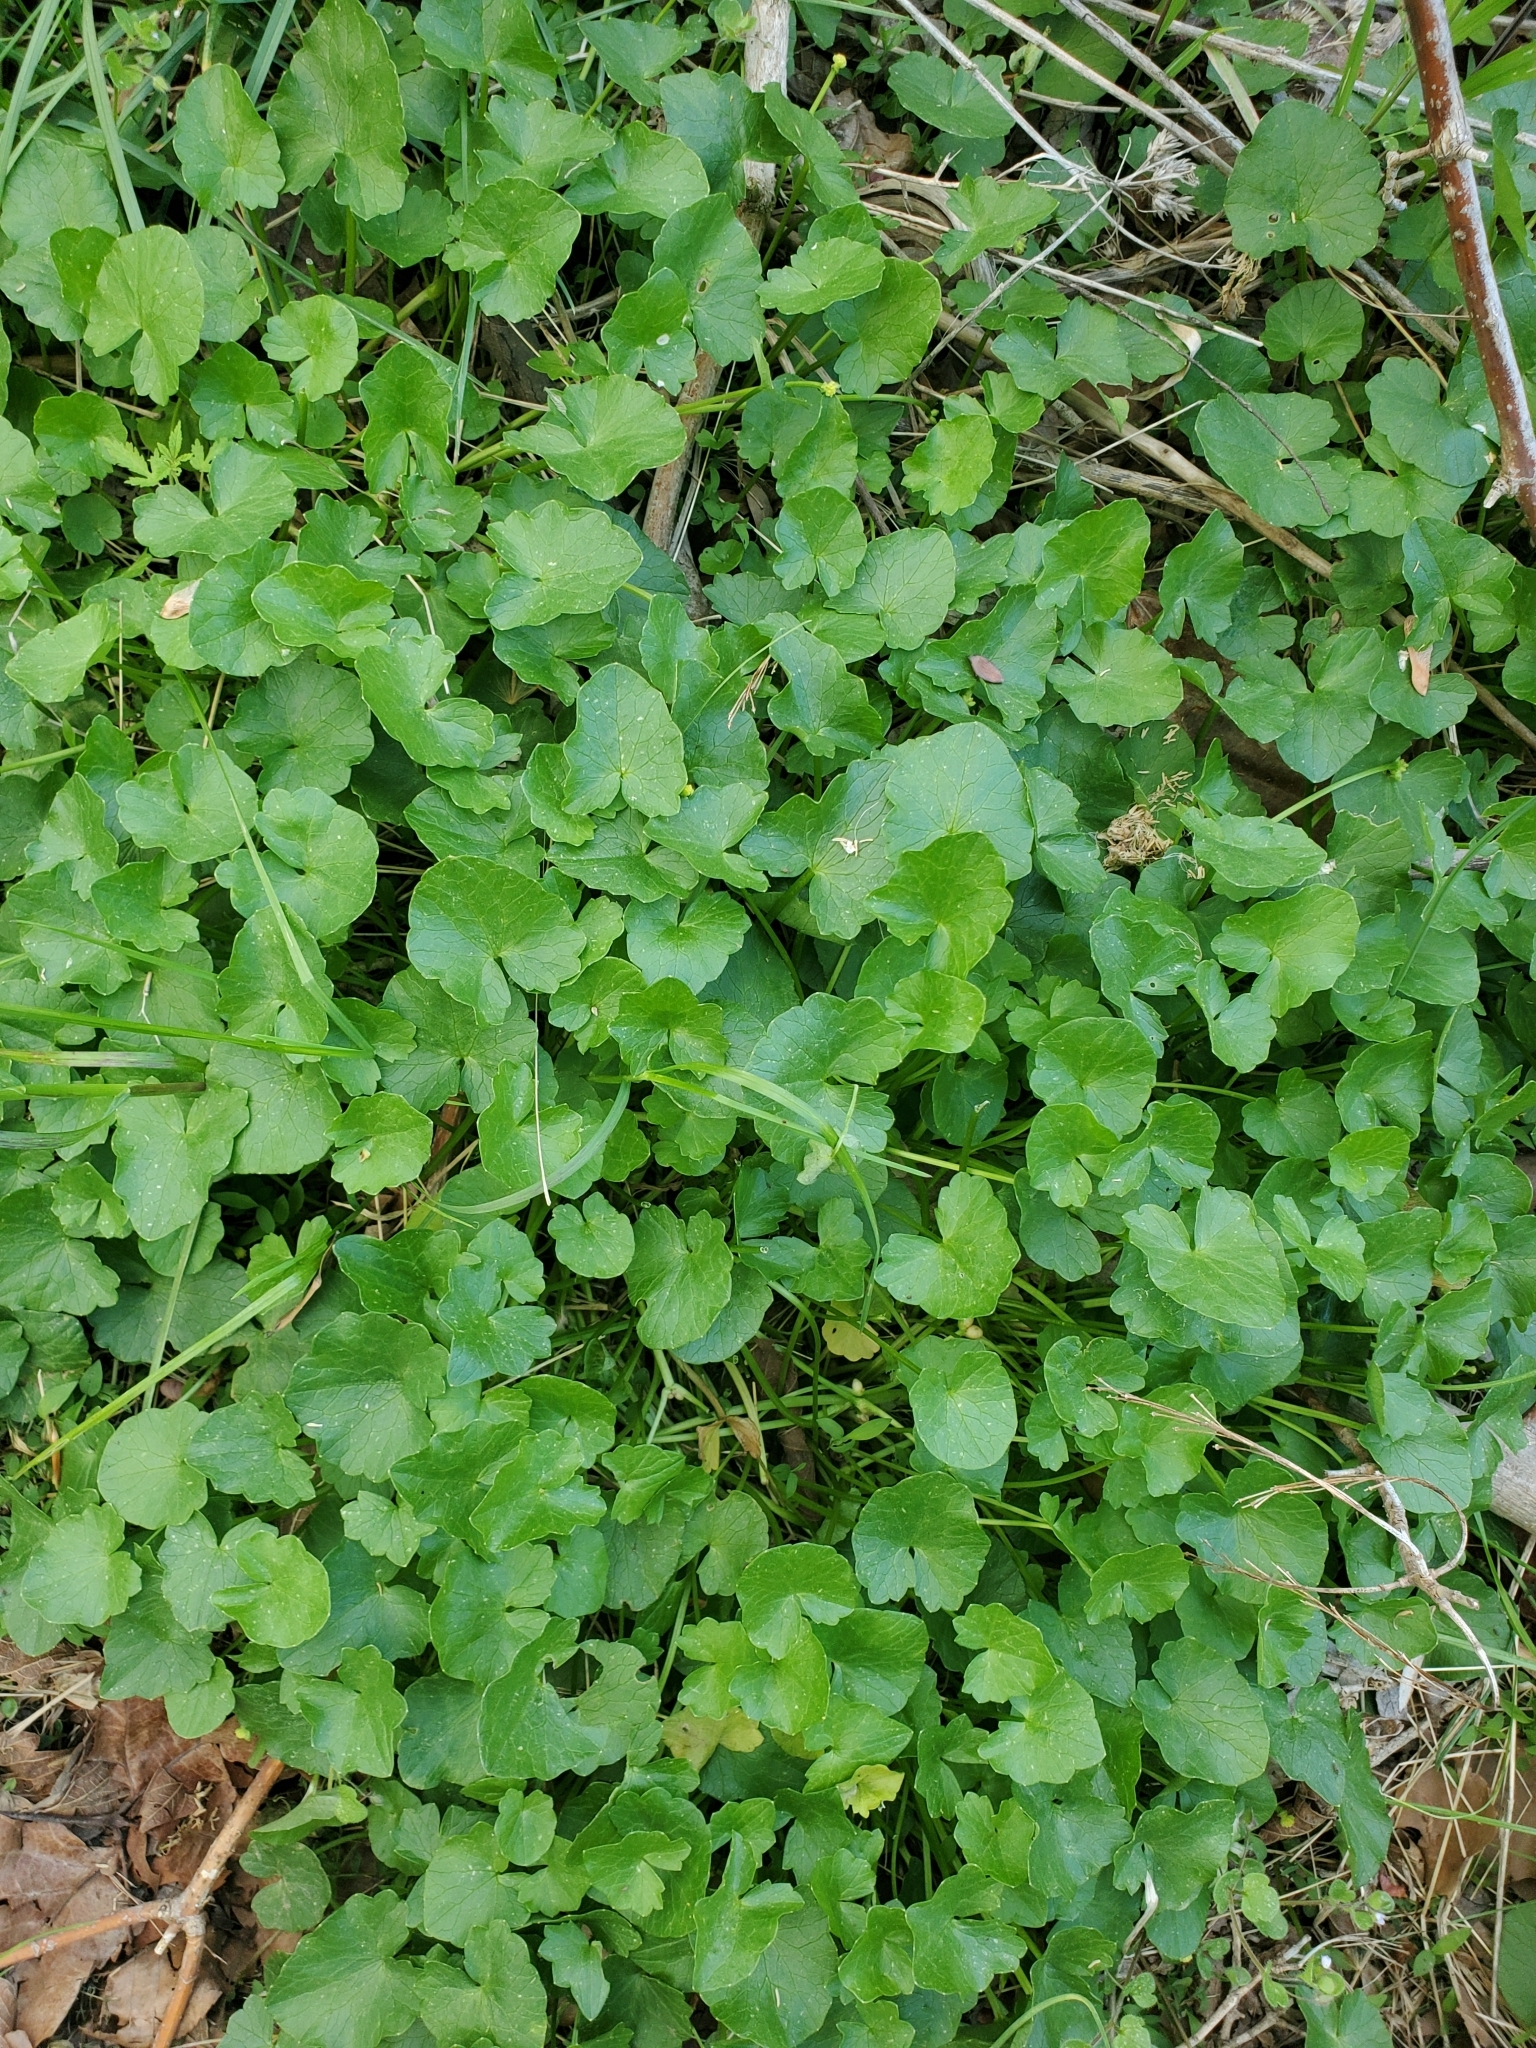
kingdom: Plantae
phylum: Tracheophyta
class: Magnoliopsida
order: Ranunculales
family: Ranunculaceae
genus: Ficaria
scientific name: Ficaria verna
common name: Lesser celandine
